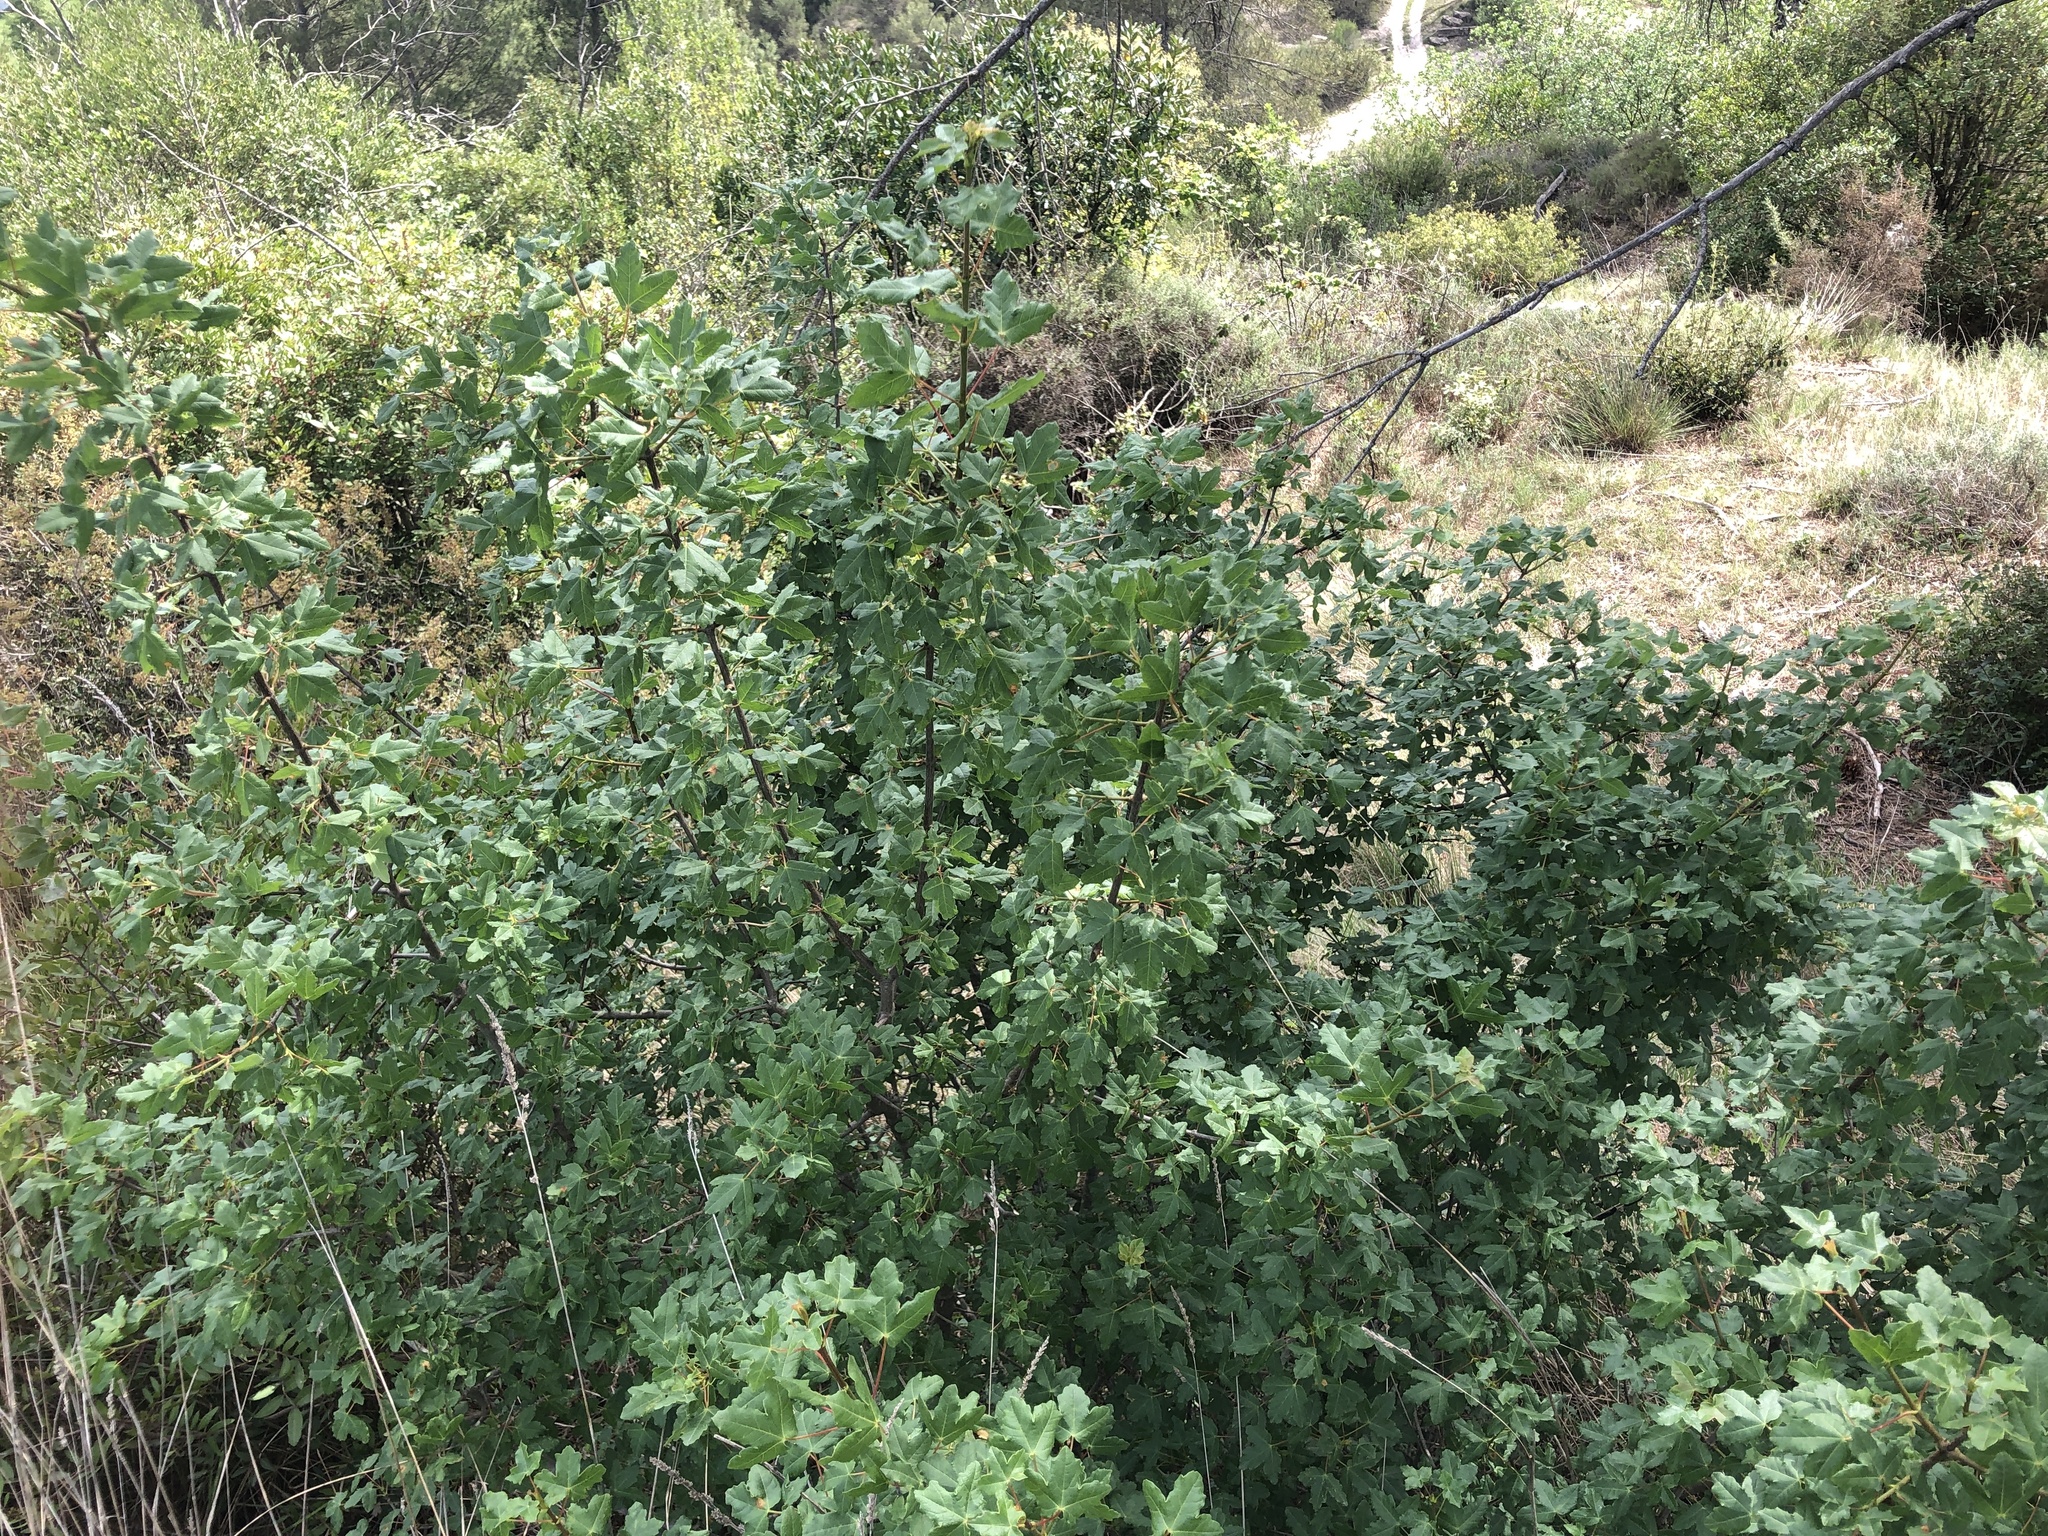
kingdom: Plantae
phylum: Tracheophyta
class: Magnoliopsida
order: Sapindales
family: Sapindaceae
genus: Acer
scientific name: Acer monspessulanum
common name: Montpellier maple
